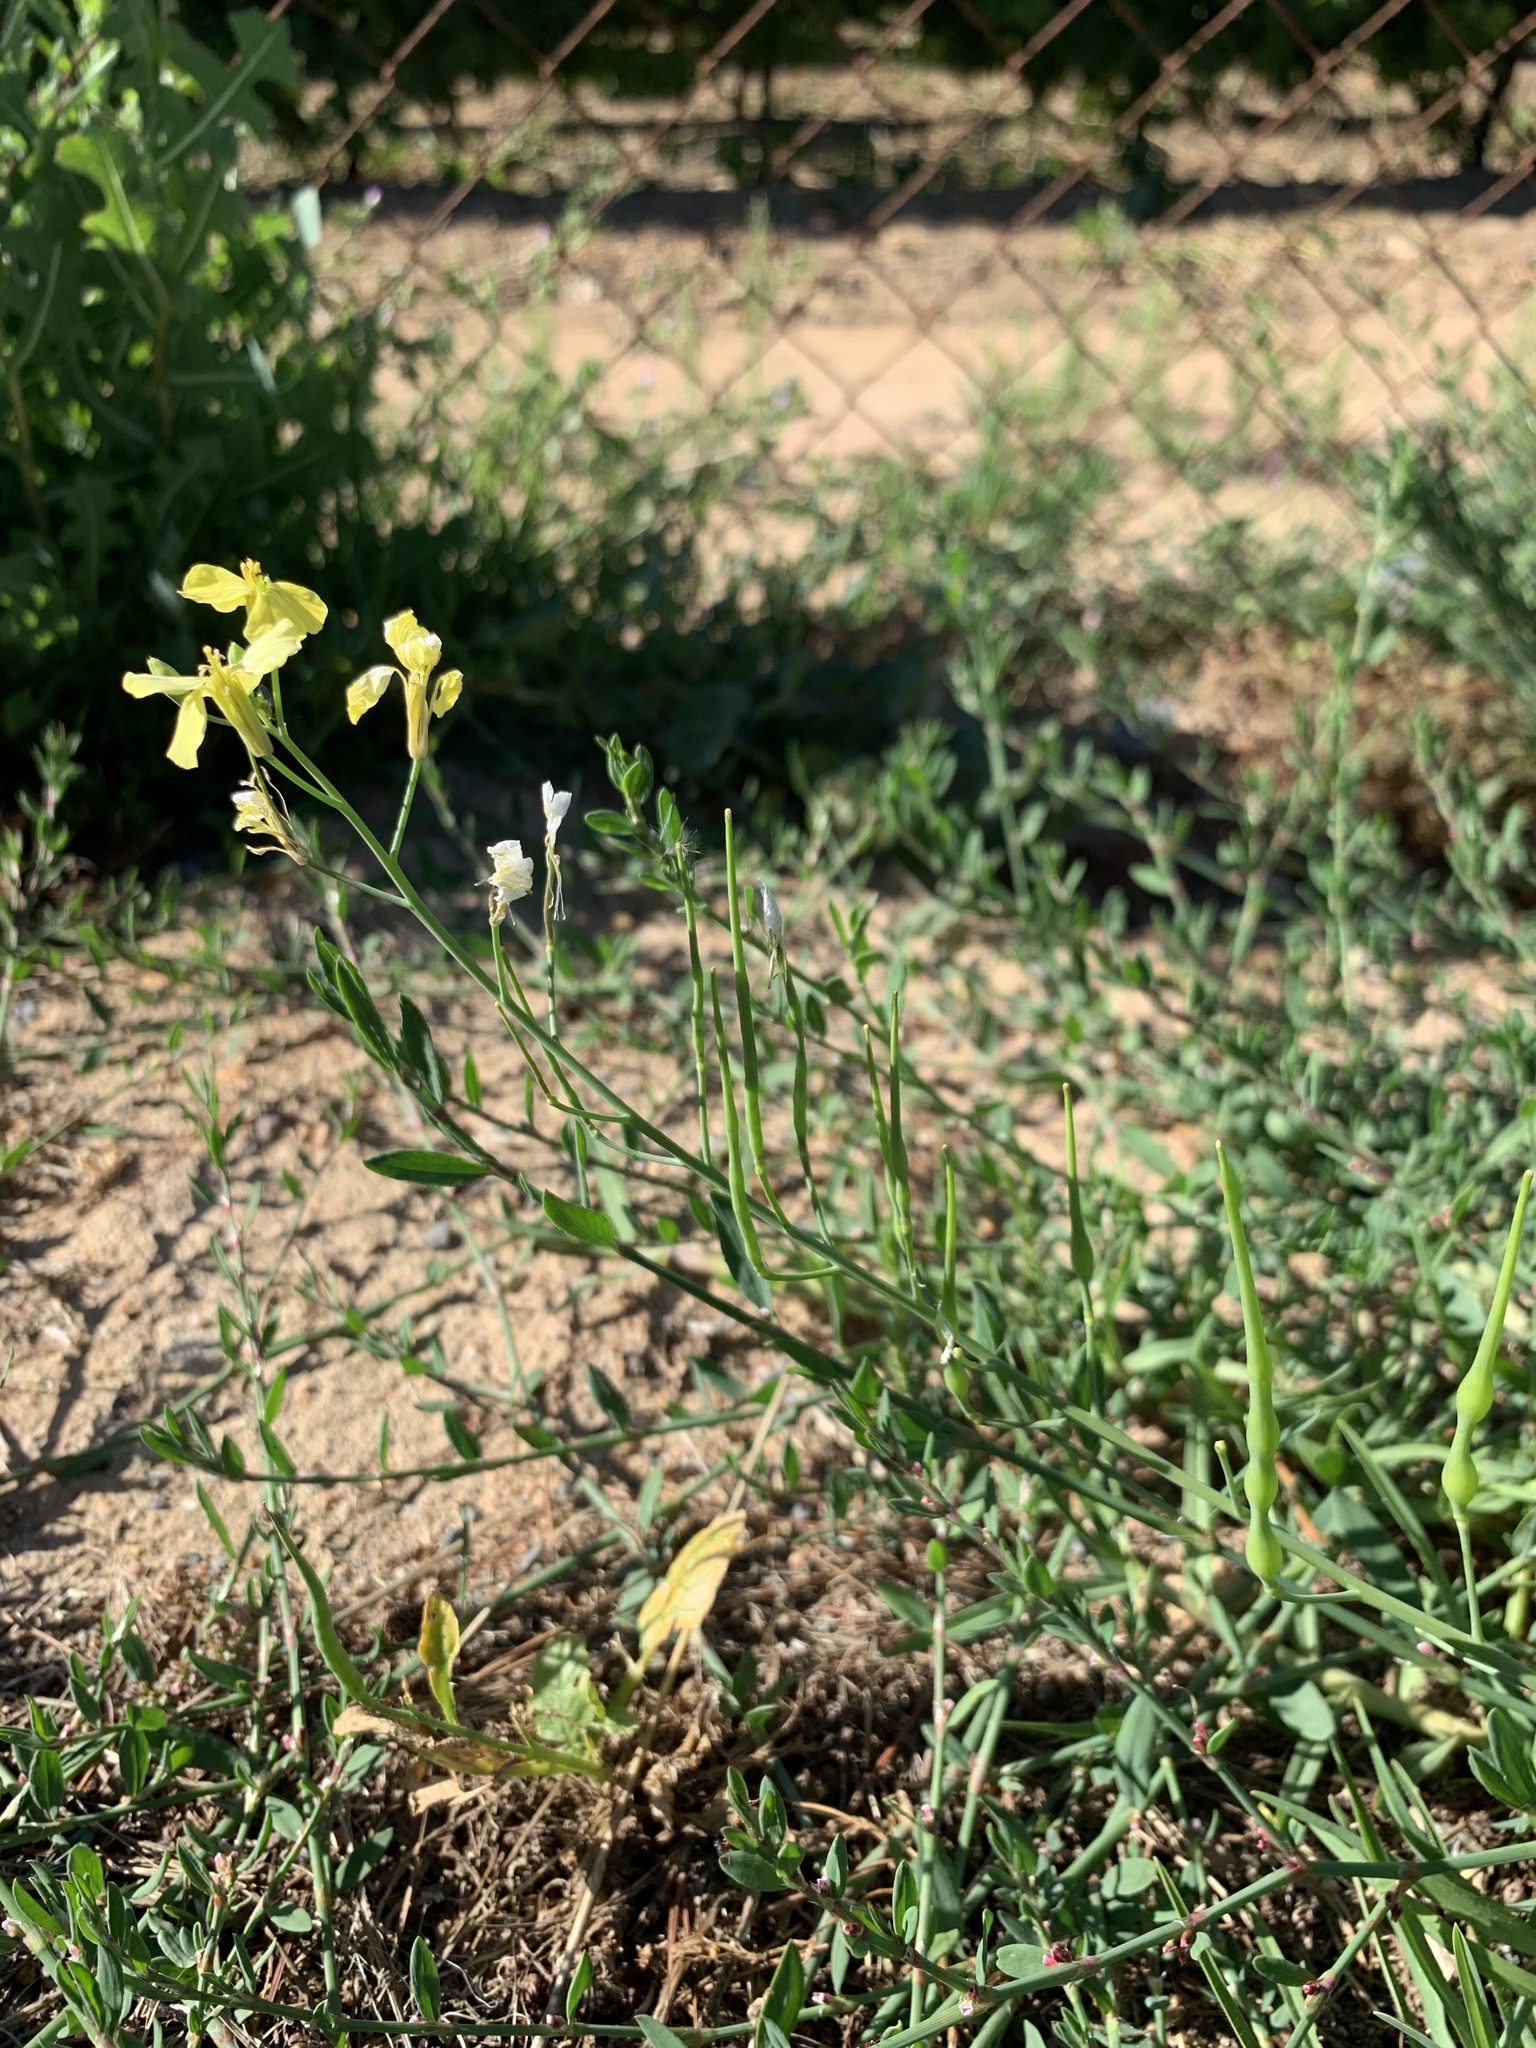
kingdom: Plantae
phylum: Tracheophyta
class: Magnoliopsida
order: Brassicales
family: Brassicaceae
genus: Raphanus
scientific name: Raphanus raphanistrum
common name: Wild radish
